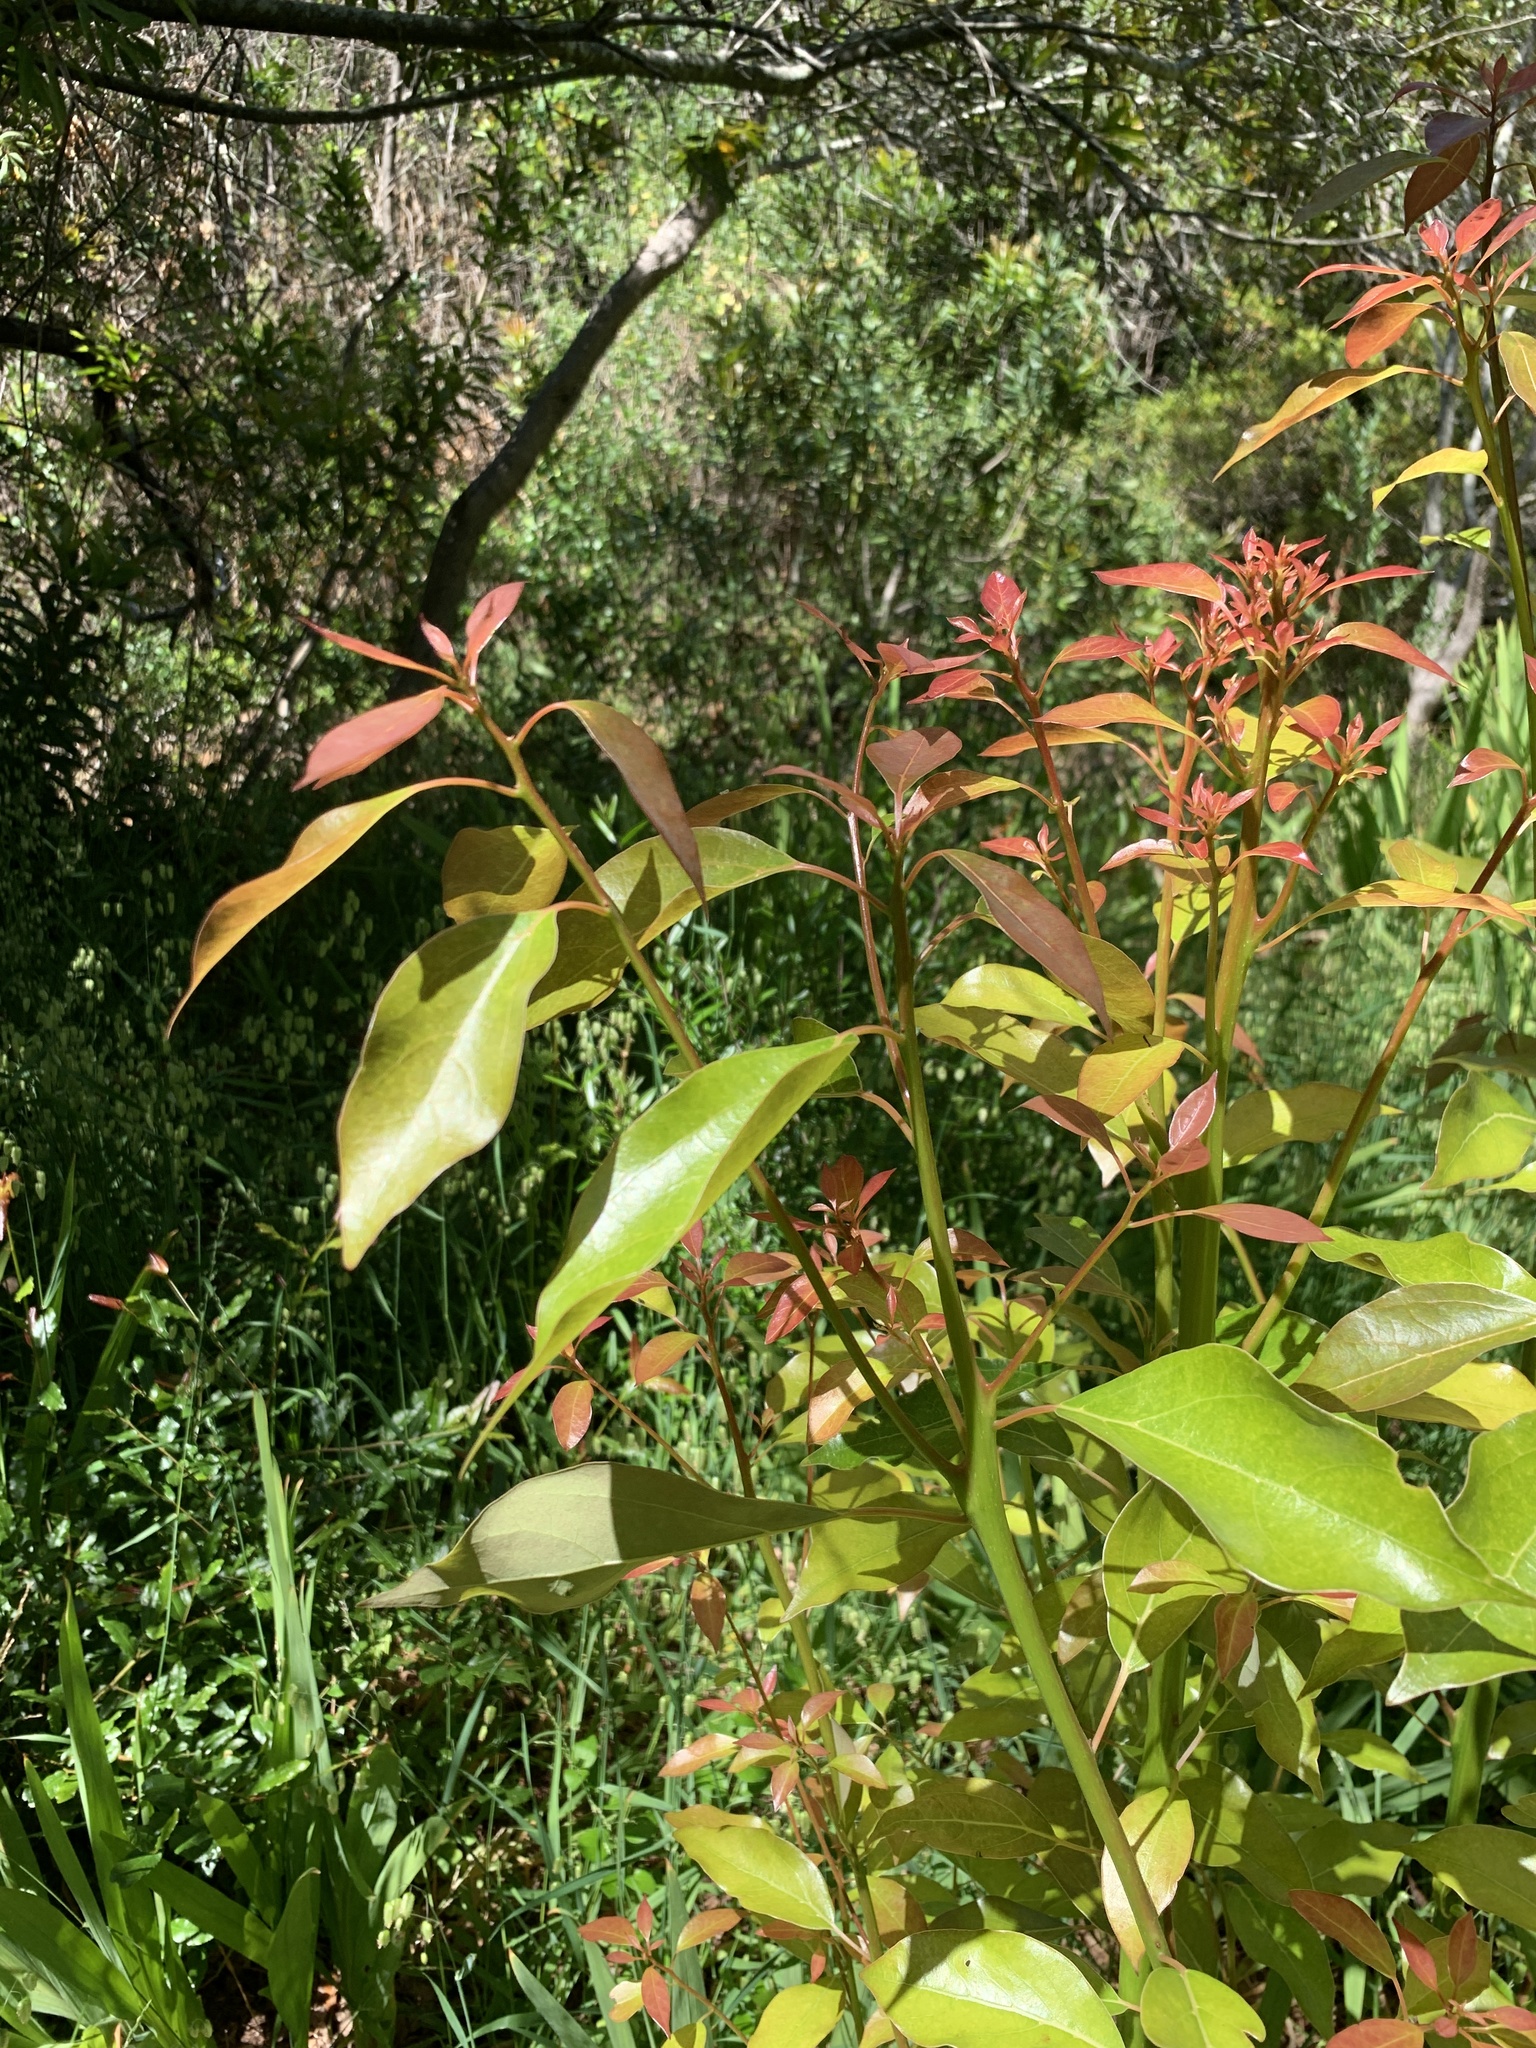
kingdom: Plantae
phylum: Tracheophyta
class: Magnoliopsida
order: Laurales
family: Lauraceae
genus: Cinnamomum
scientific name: Cinnamomum camphora
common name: Camphortree
